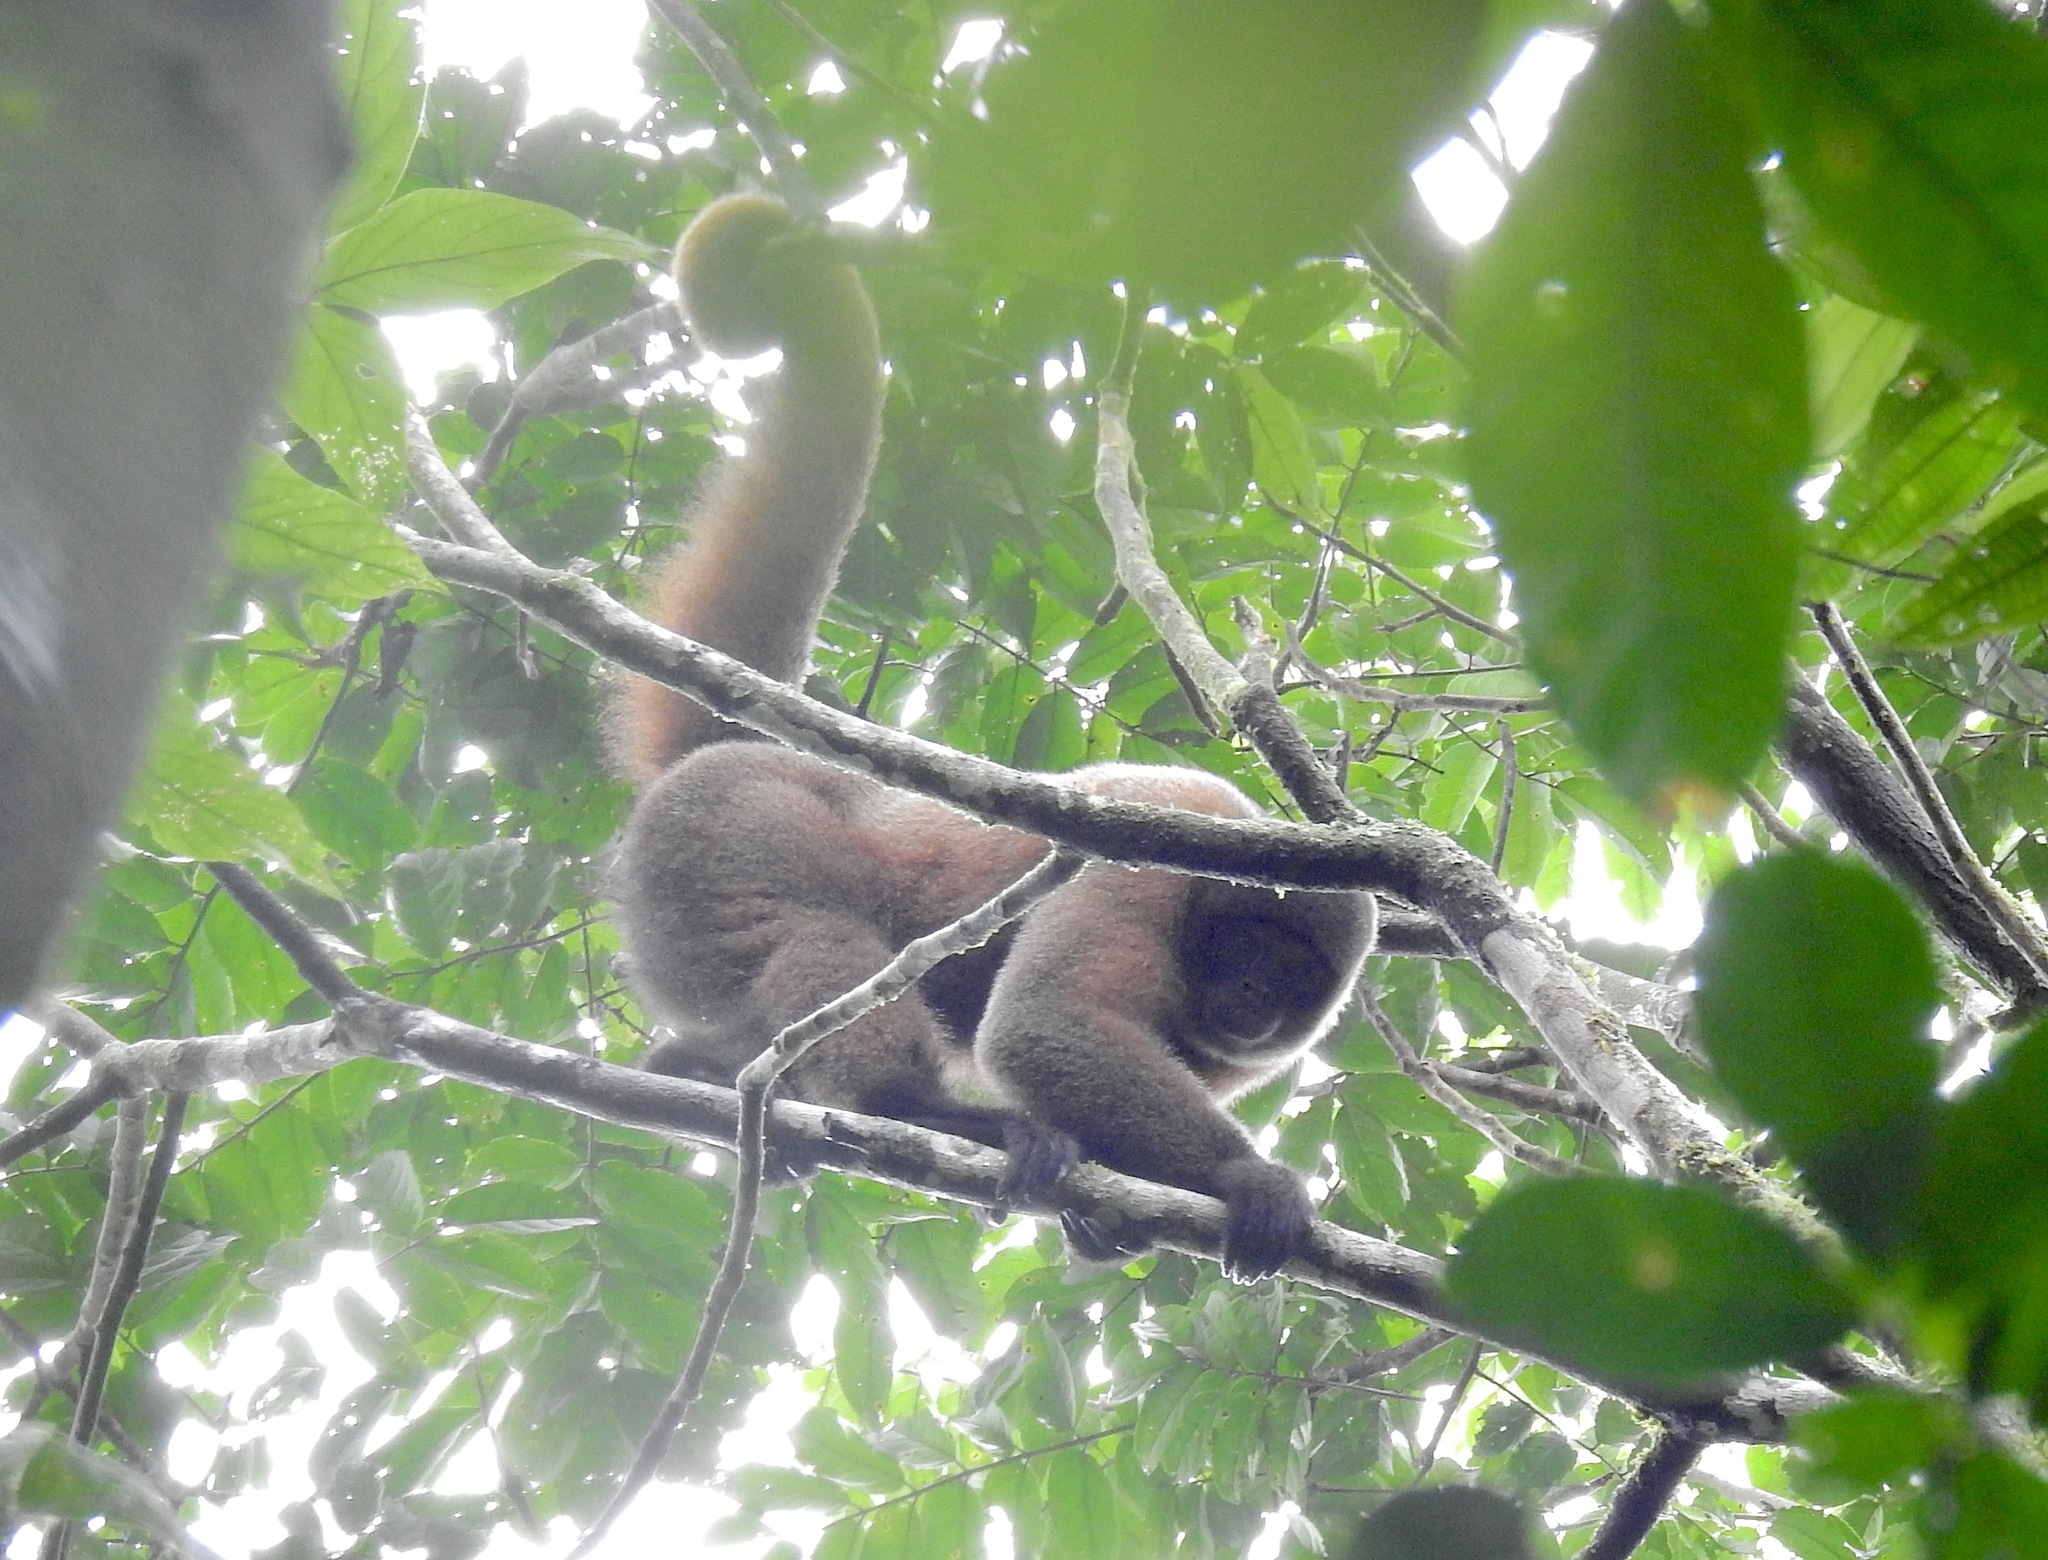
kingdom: Animalia
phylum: Chordata
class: Mammalia
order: Primates
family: Atelidae
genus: Lagothrix
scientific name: Lagothrix lagothricha
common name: Brown woolly monkey
